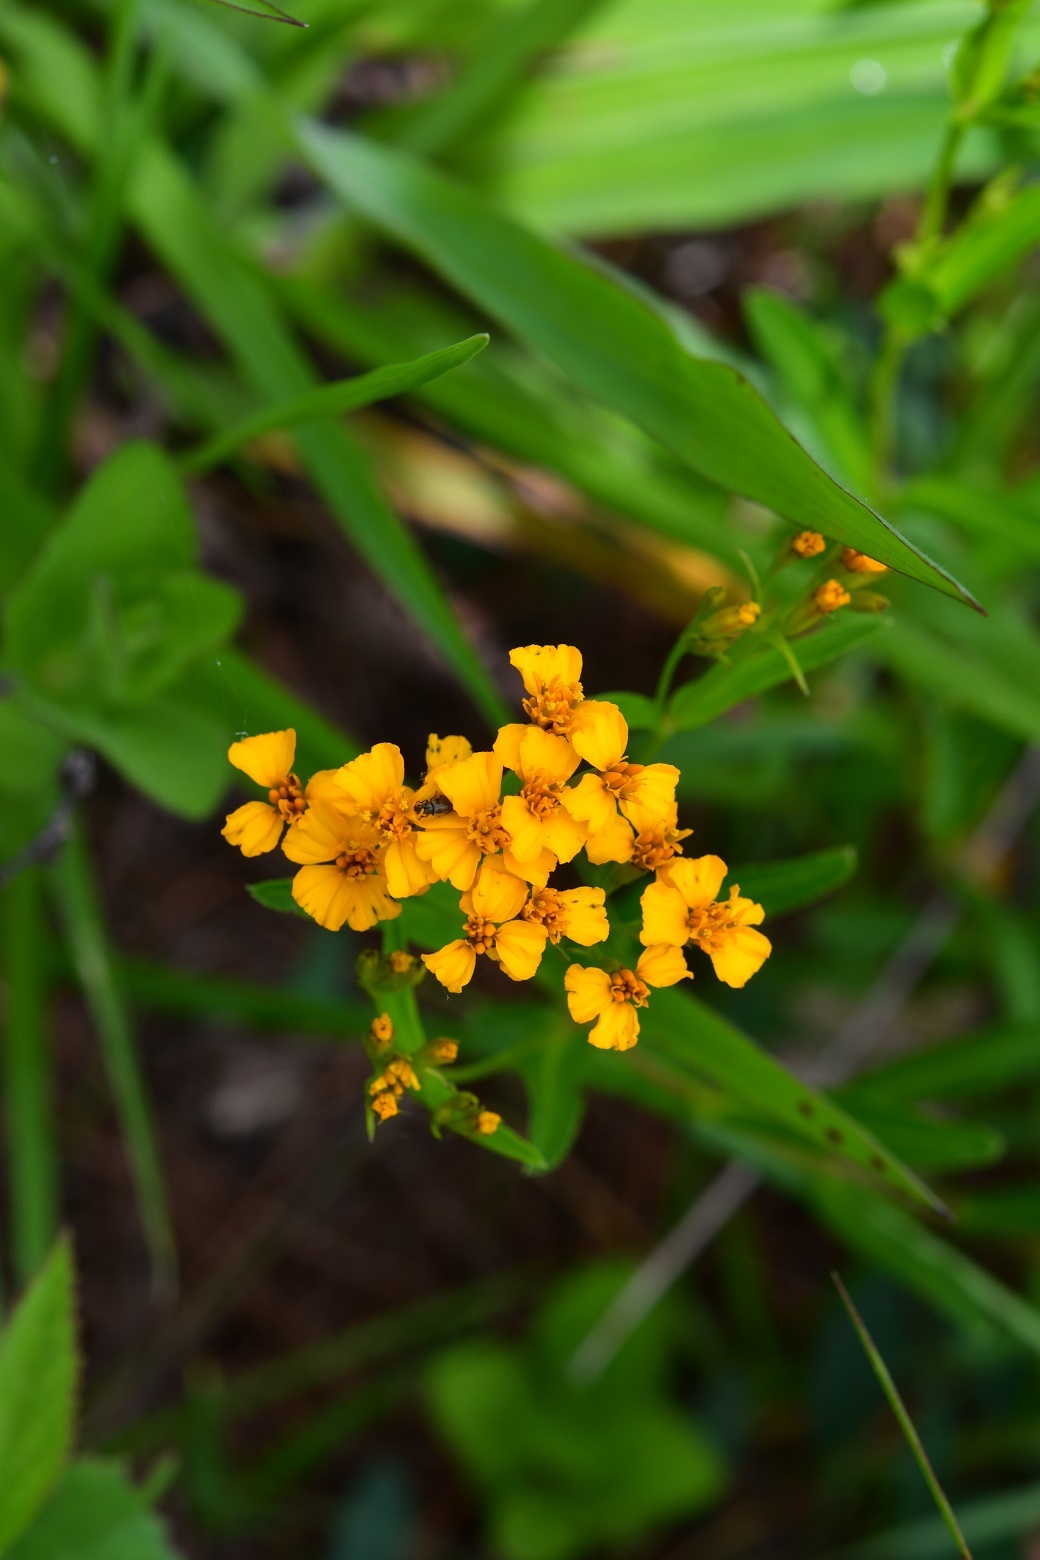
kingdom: Plantae
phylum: Tracheophyta
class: Magnoliopsida
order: Asterales
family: Asteraceae
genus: Tagetes
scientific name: Tagetes lucida
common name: Sweetscented marigold
